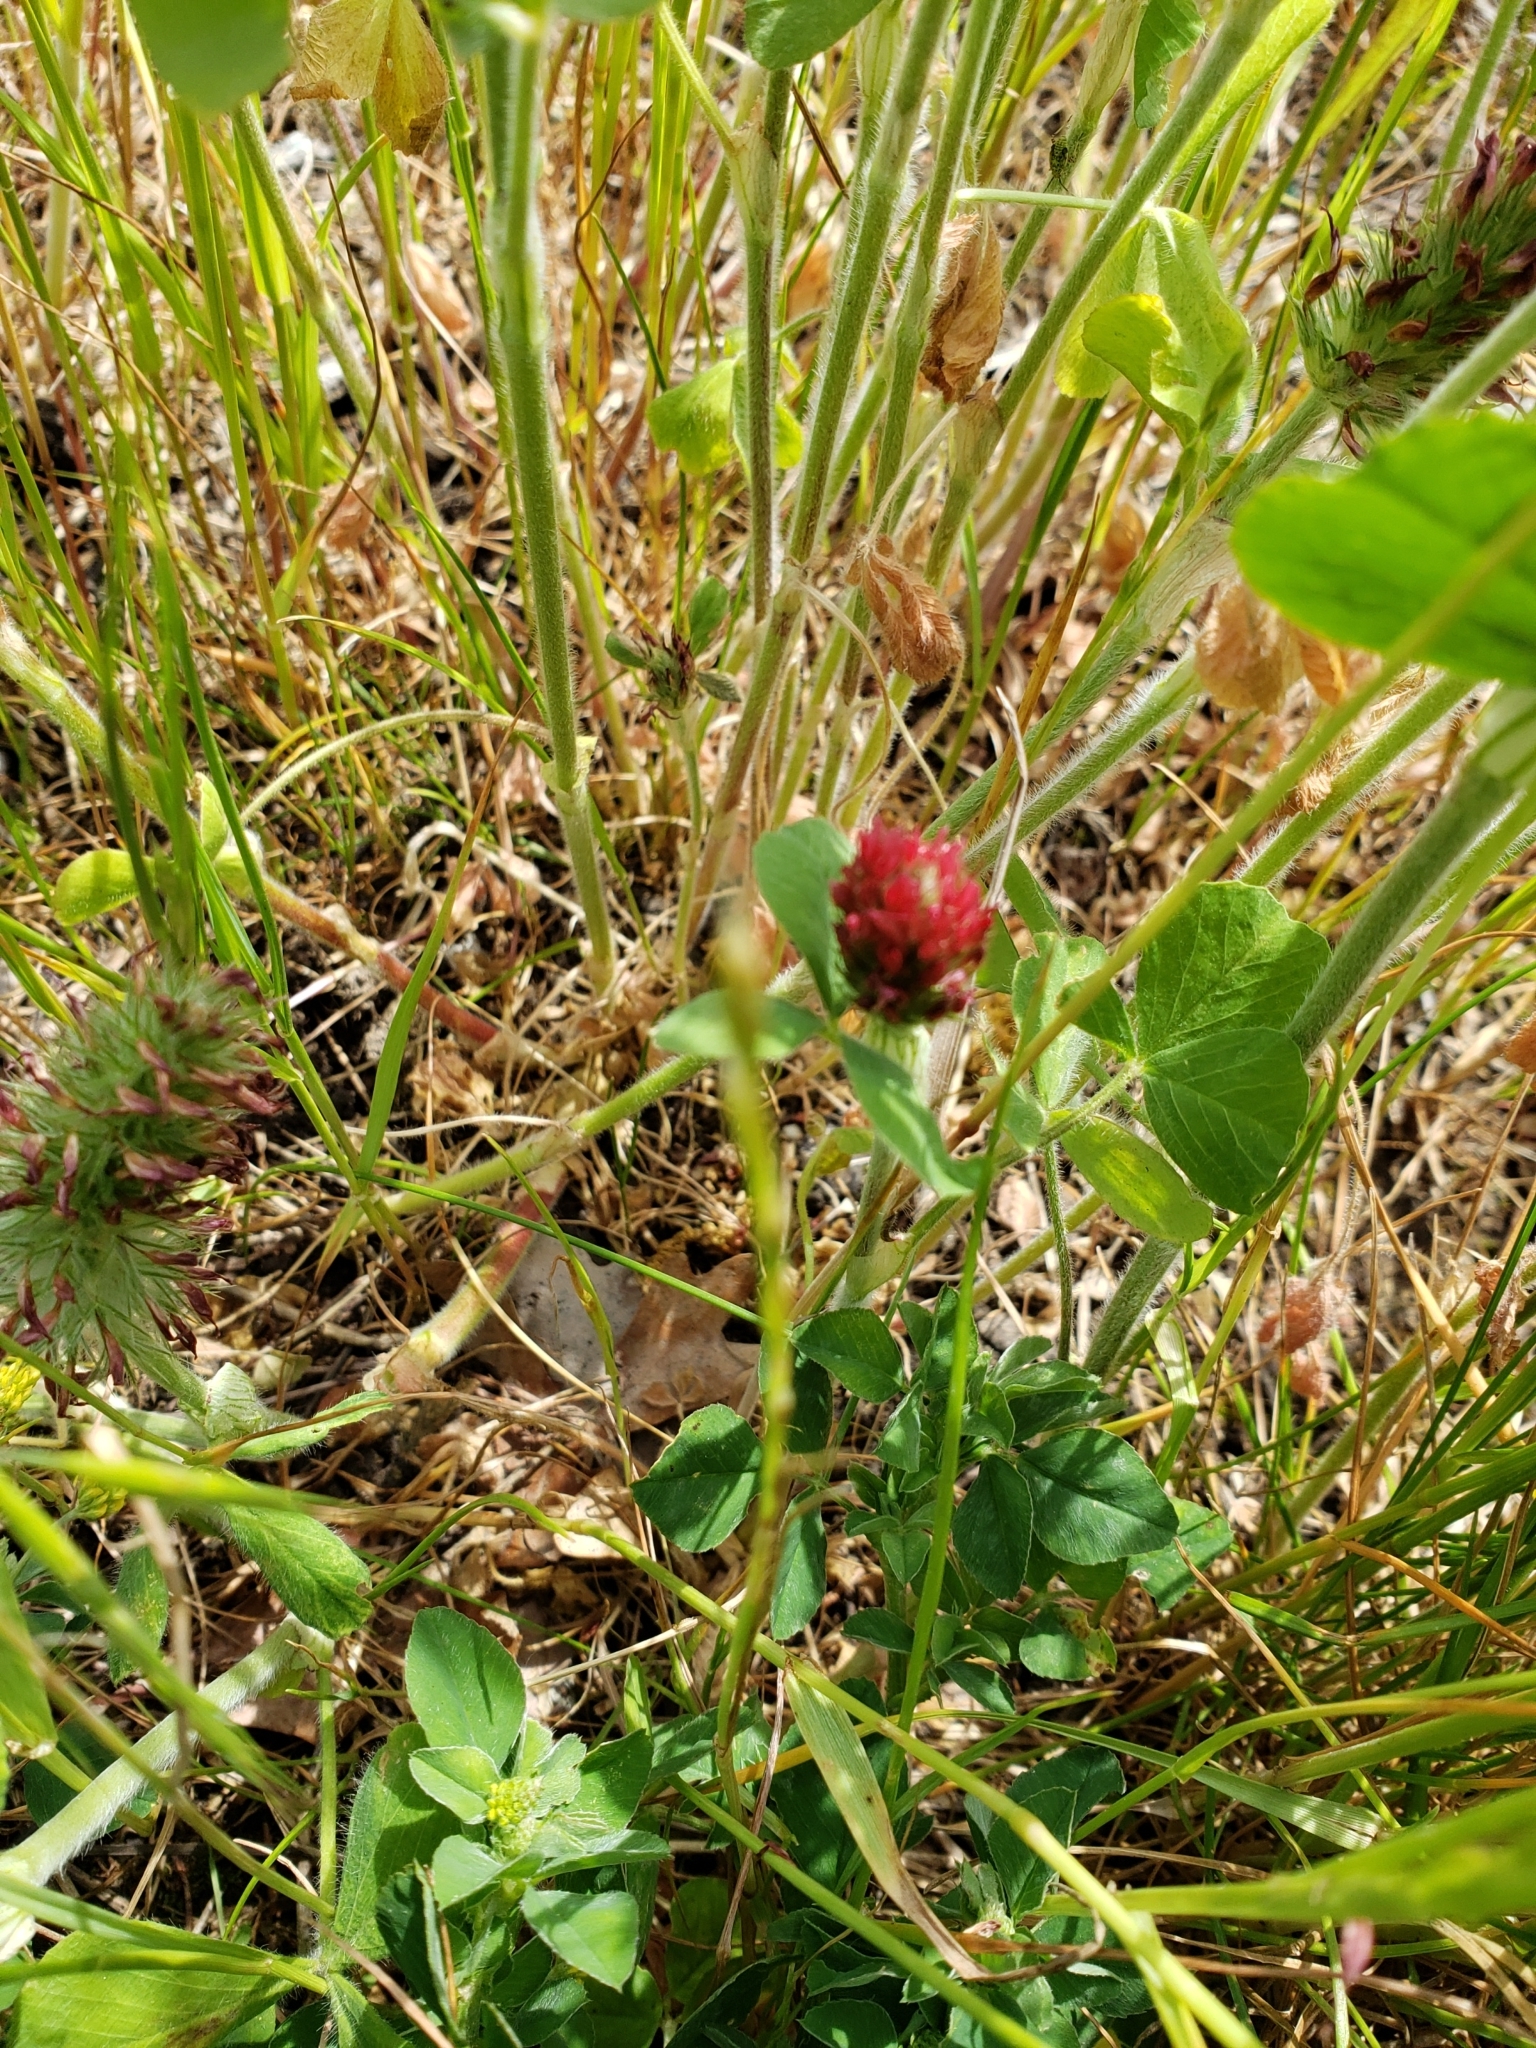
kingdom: Plantae
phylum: Tracheophyta
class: Magnoliopsida
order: Fabales
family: Fabaceae
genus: Trifolium
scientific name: Trifolium incarnatum
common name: Crimson clover
